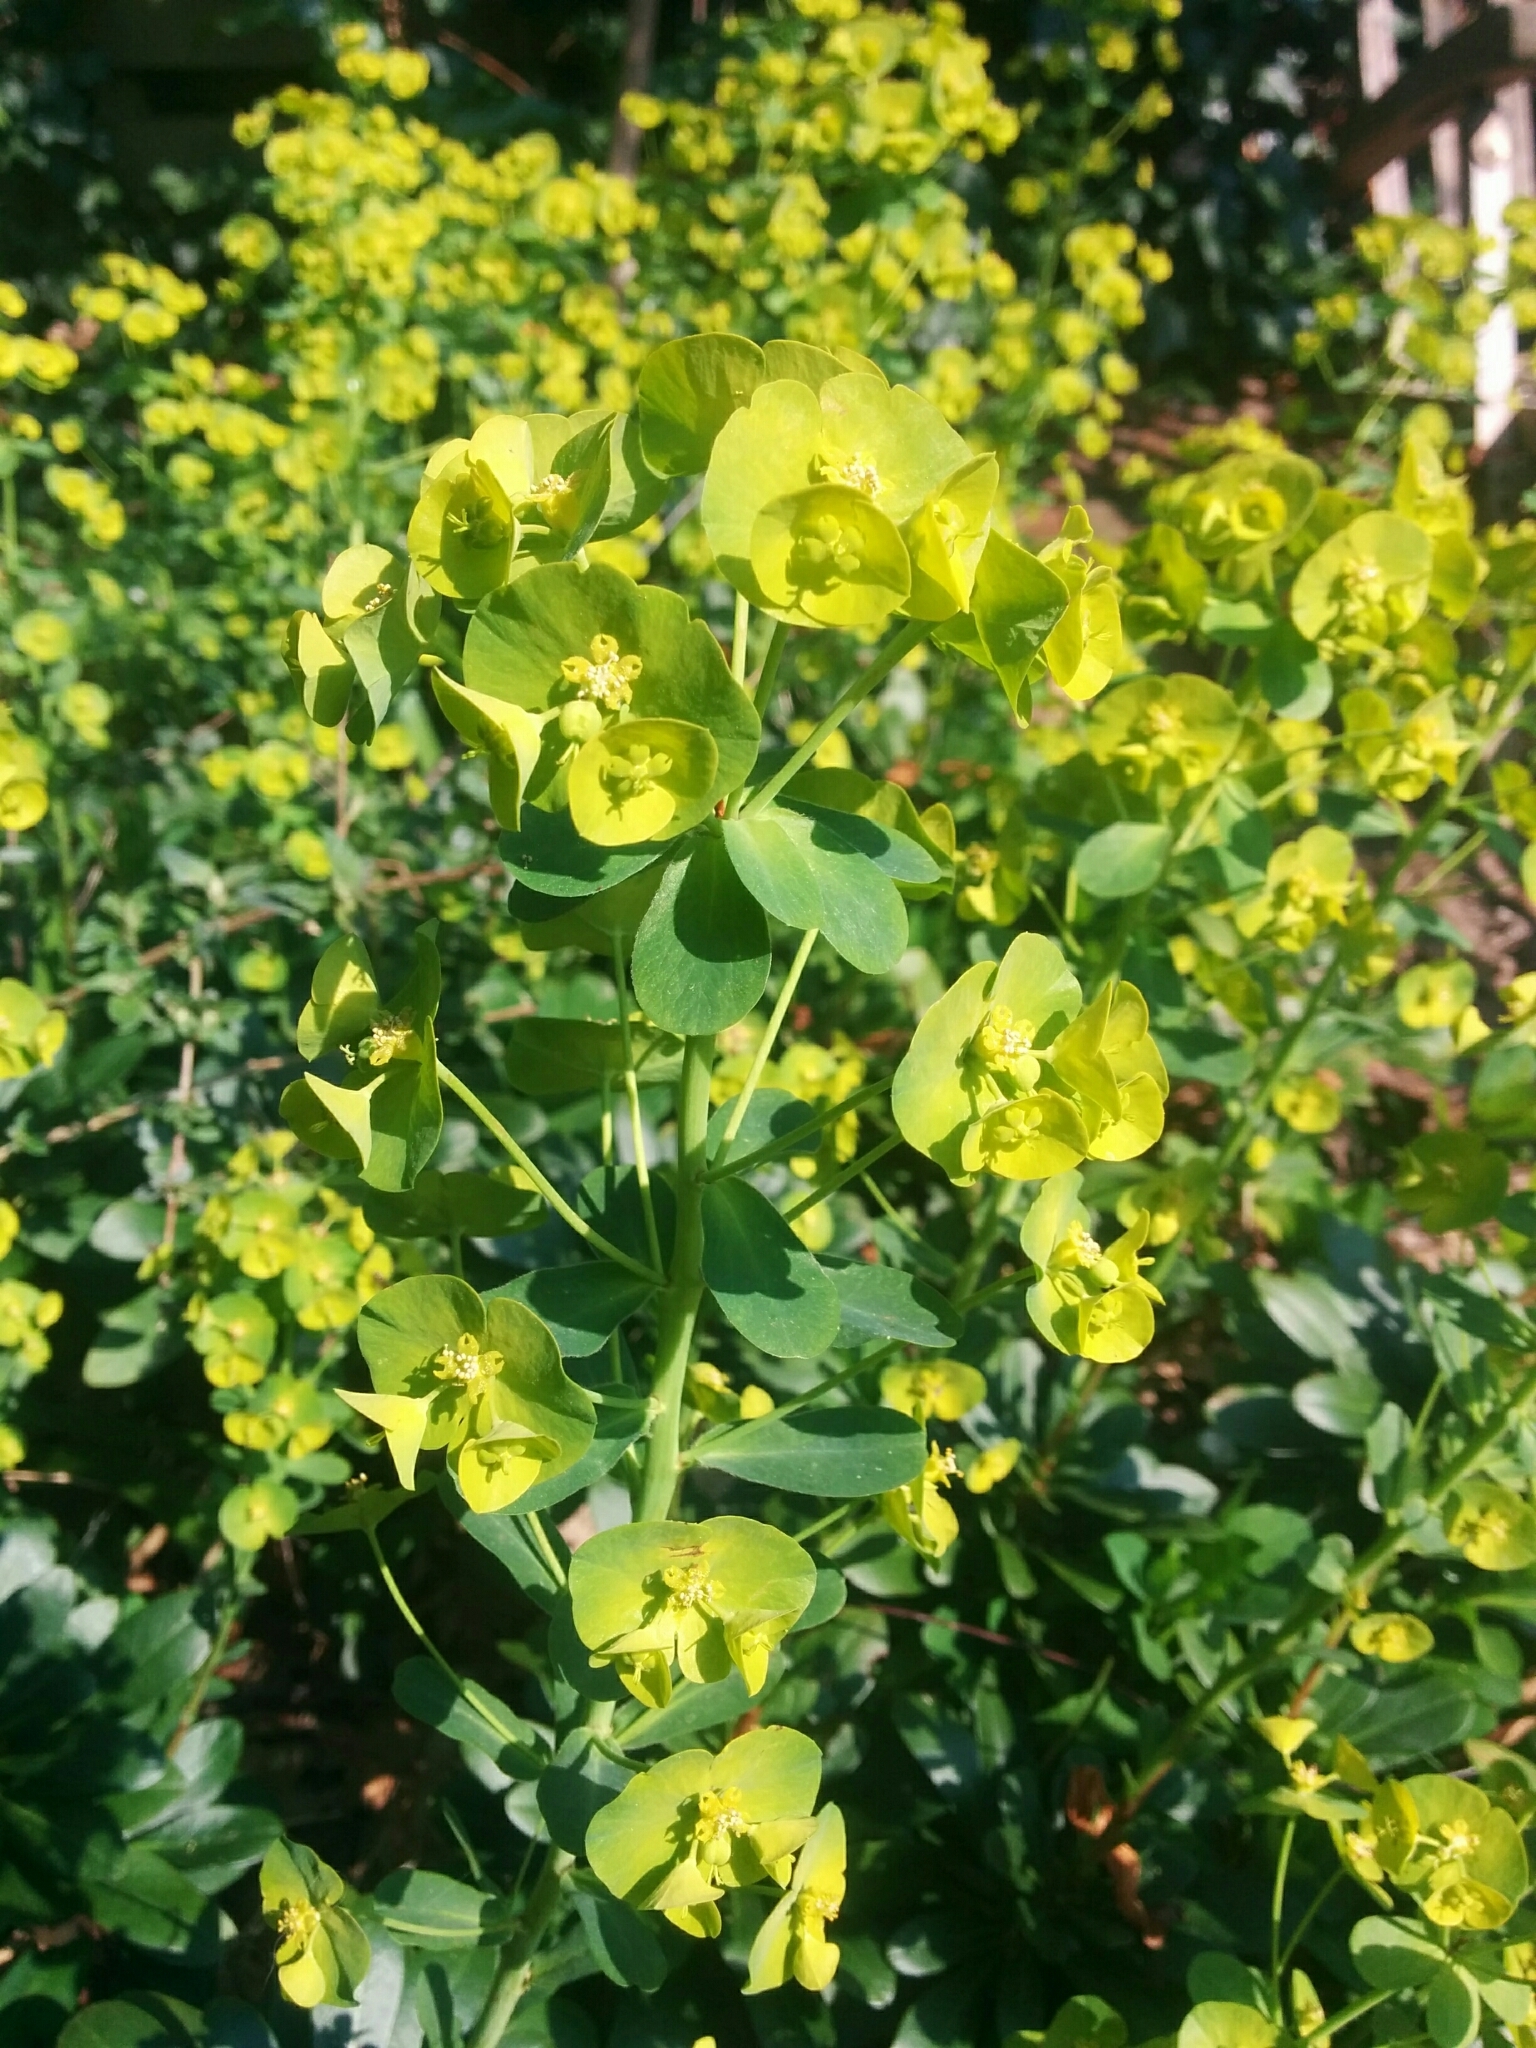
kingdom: Plantae
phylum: Tracheophyta
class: Magnoliopsida
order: Malpighiales
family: Euphorbiaceae
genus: Euphorbia
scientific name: Euphorbia amygdaloides
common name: Wood spurge
